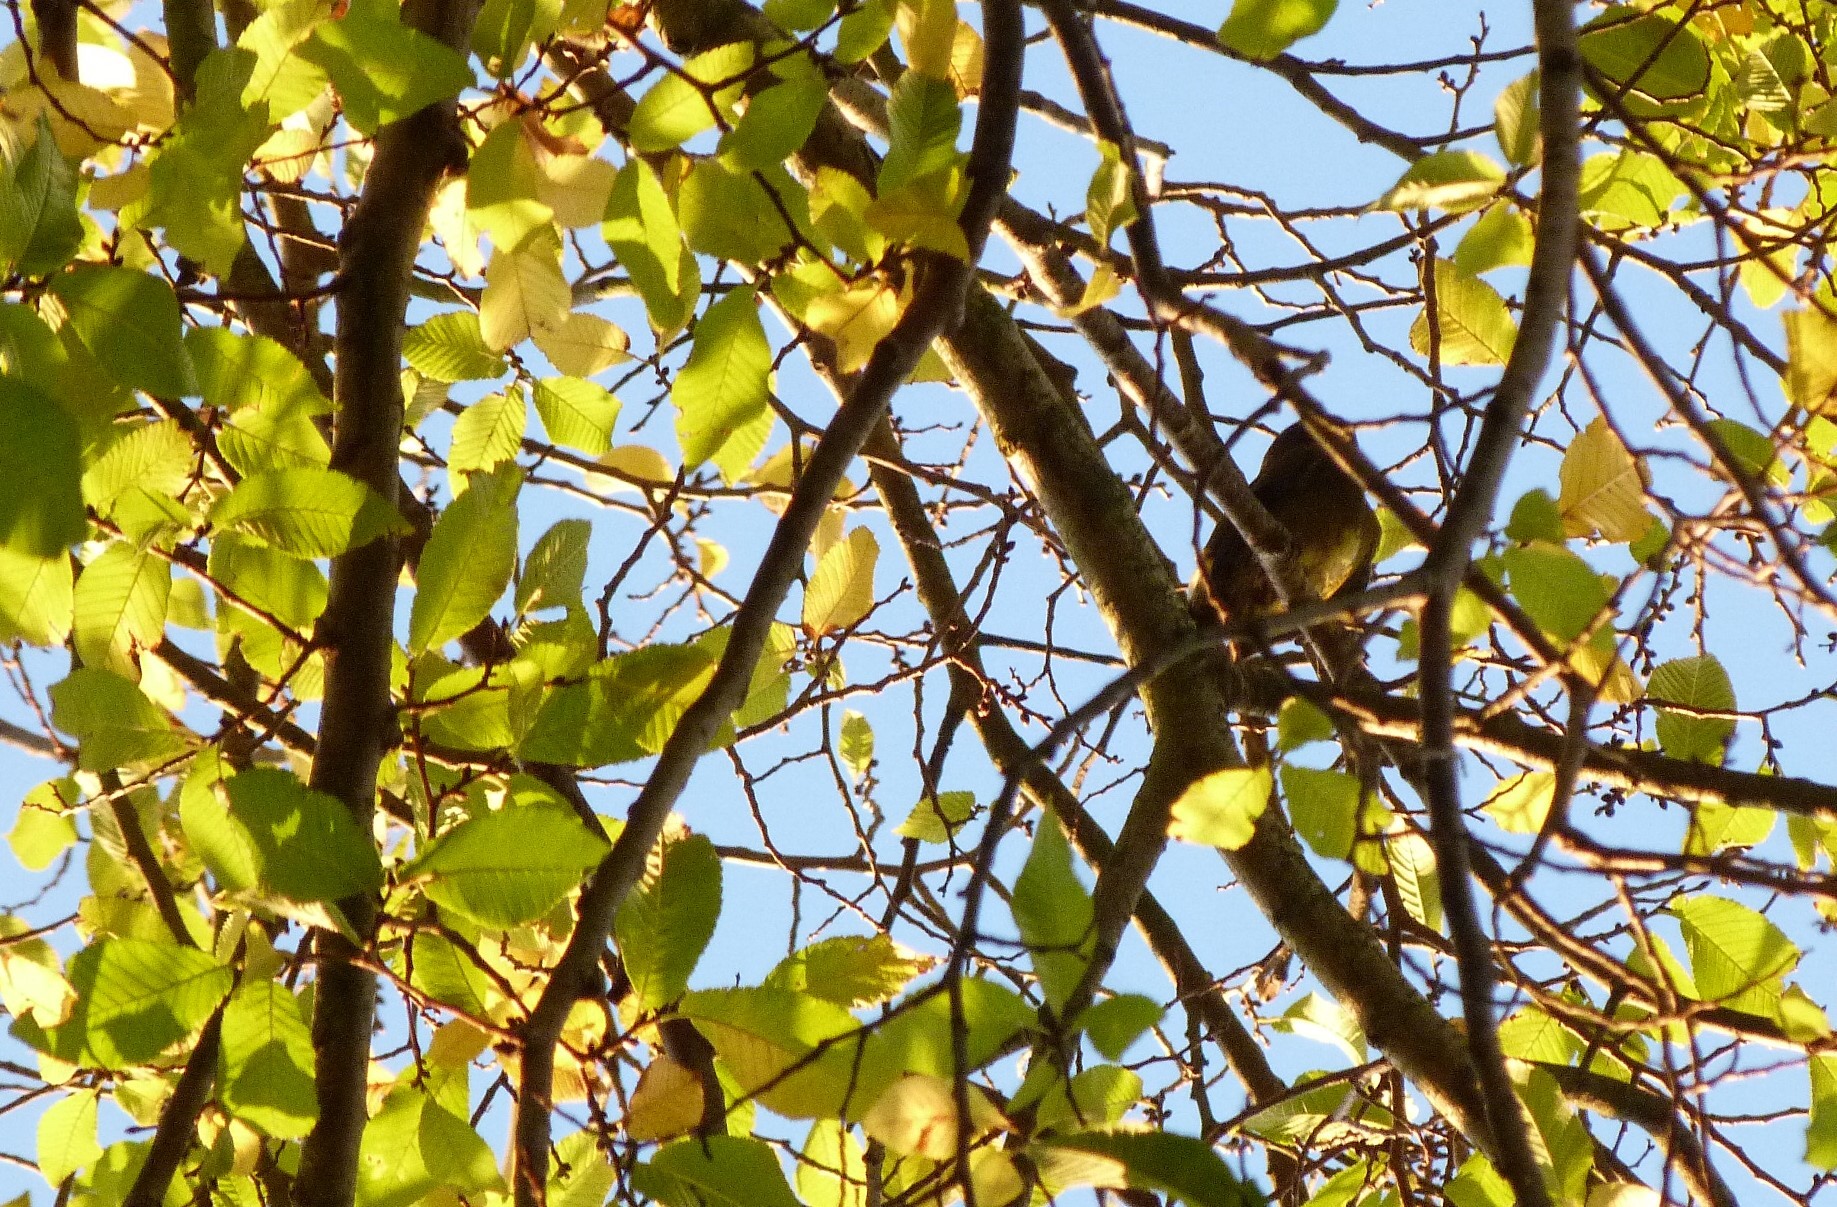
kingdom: Animalia
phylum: Chordata
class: Aves
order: Passeriformes
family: Meliphagidae
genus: Anthornis
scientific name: Anthornis melanura
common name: New zealand bellbird
